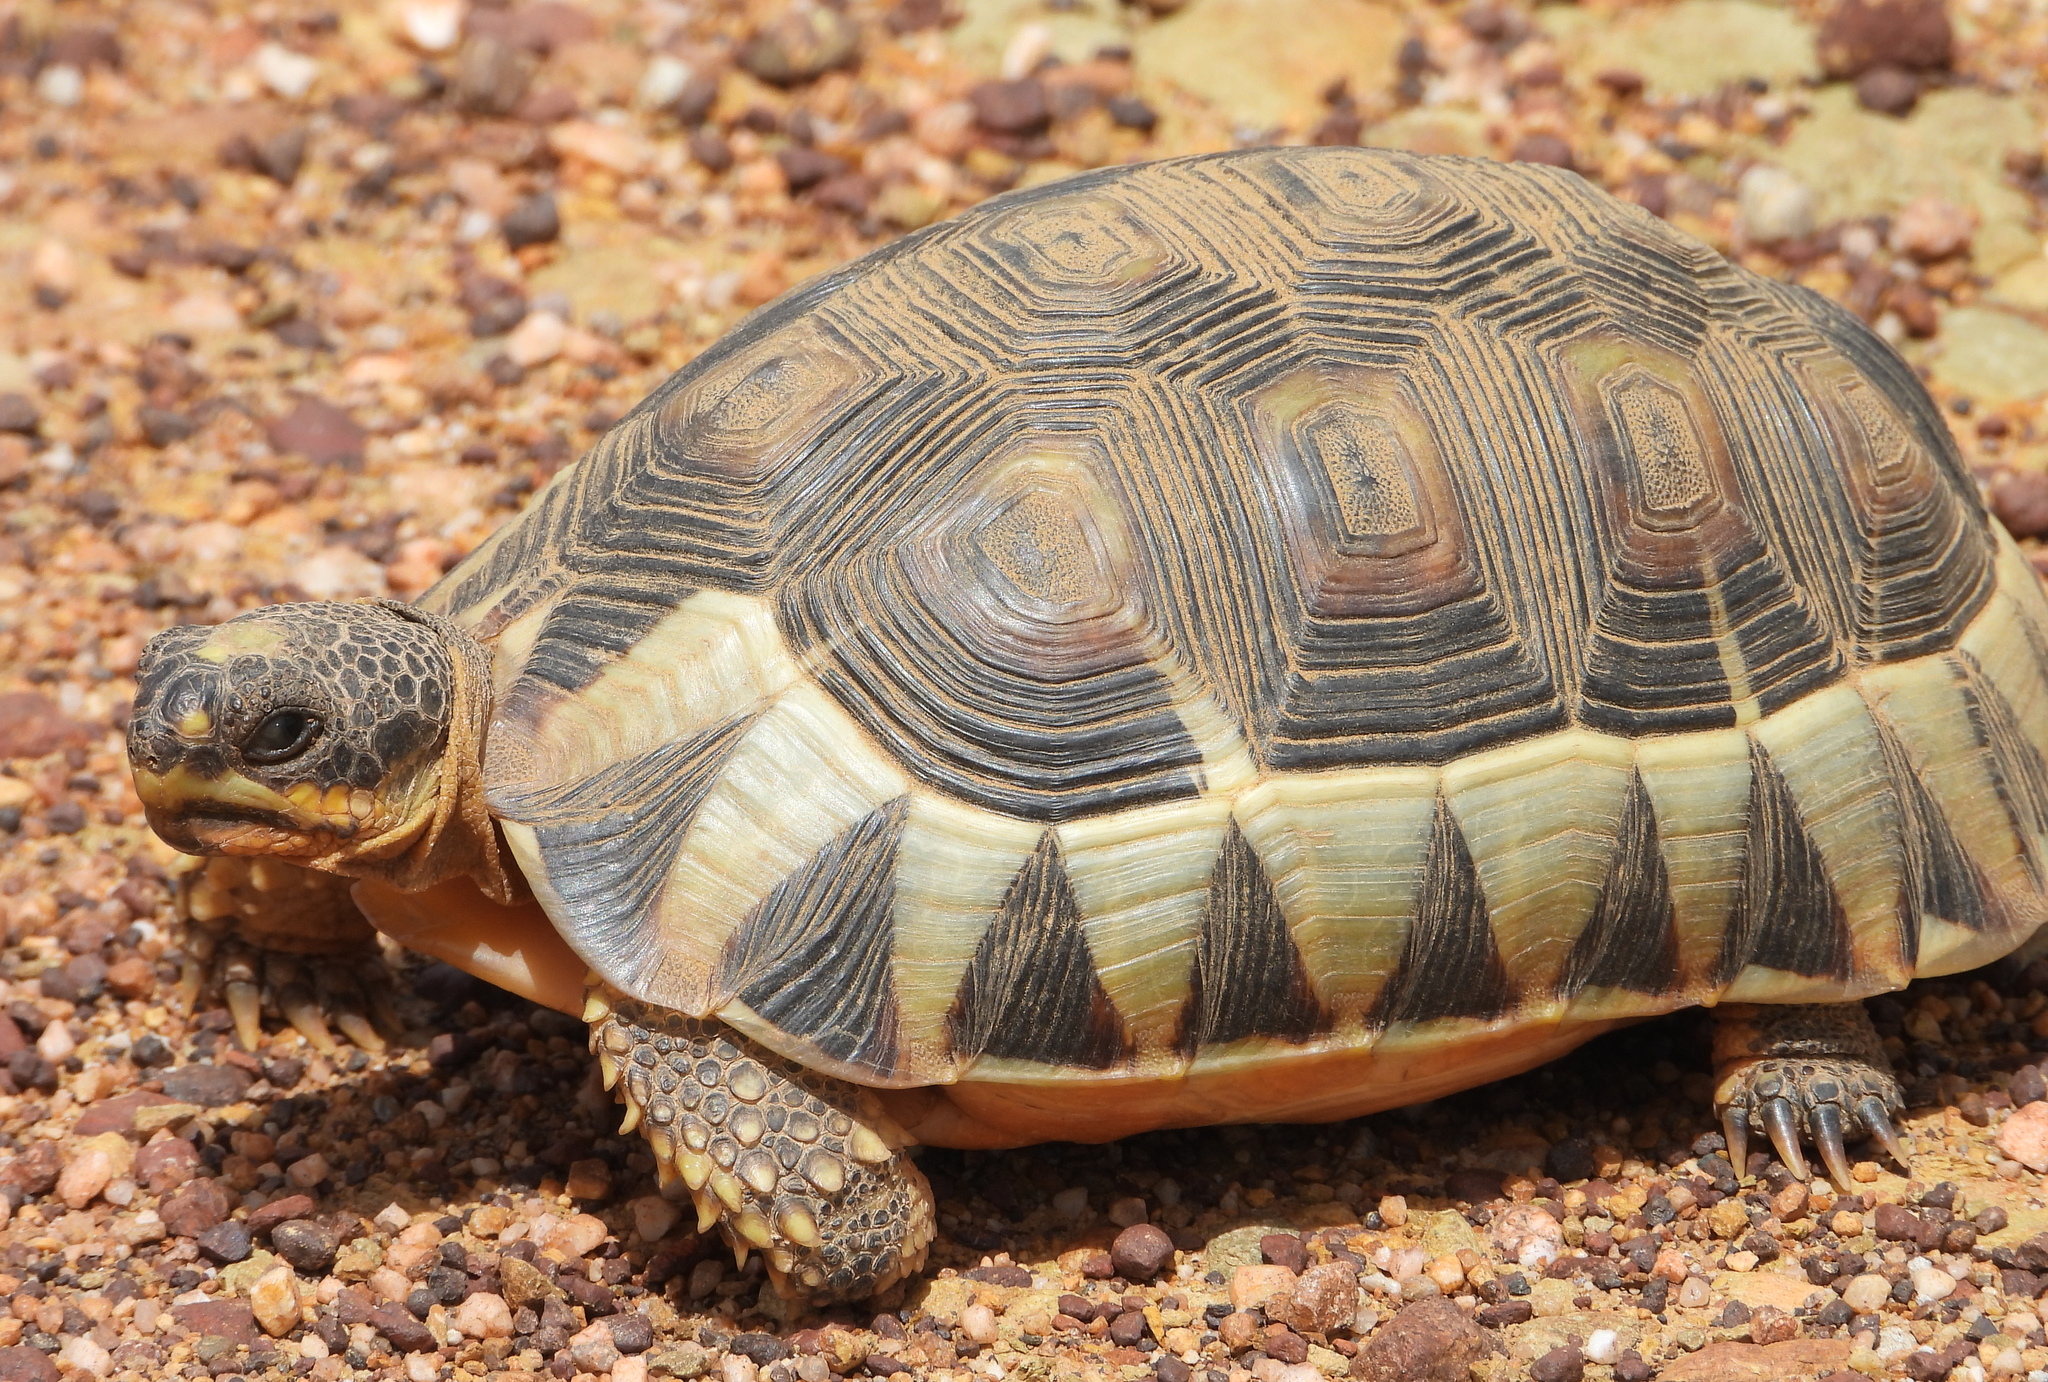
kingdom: Animalia
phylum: Chordata
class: Testudines
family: Testudinidae
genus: Chersina
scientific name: Chersina angulata
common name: South african bowsprit tortoise
